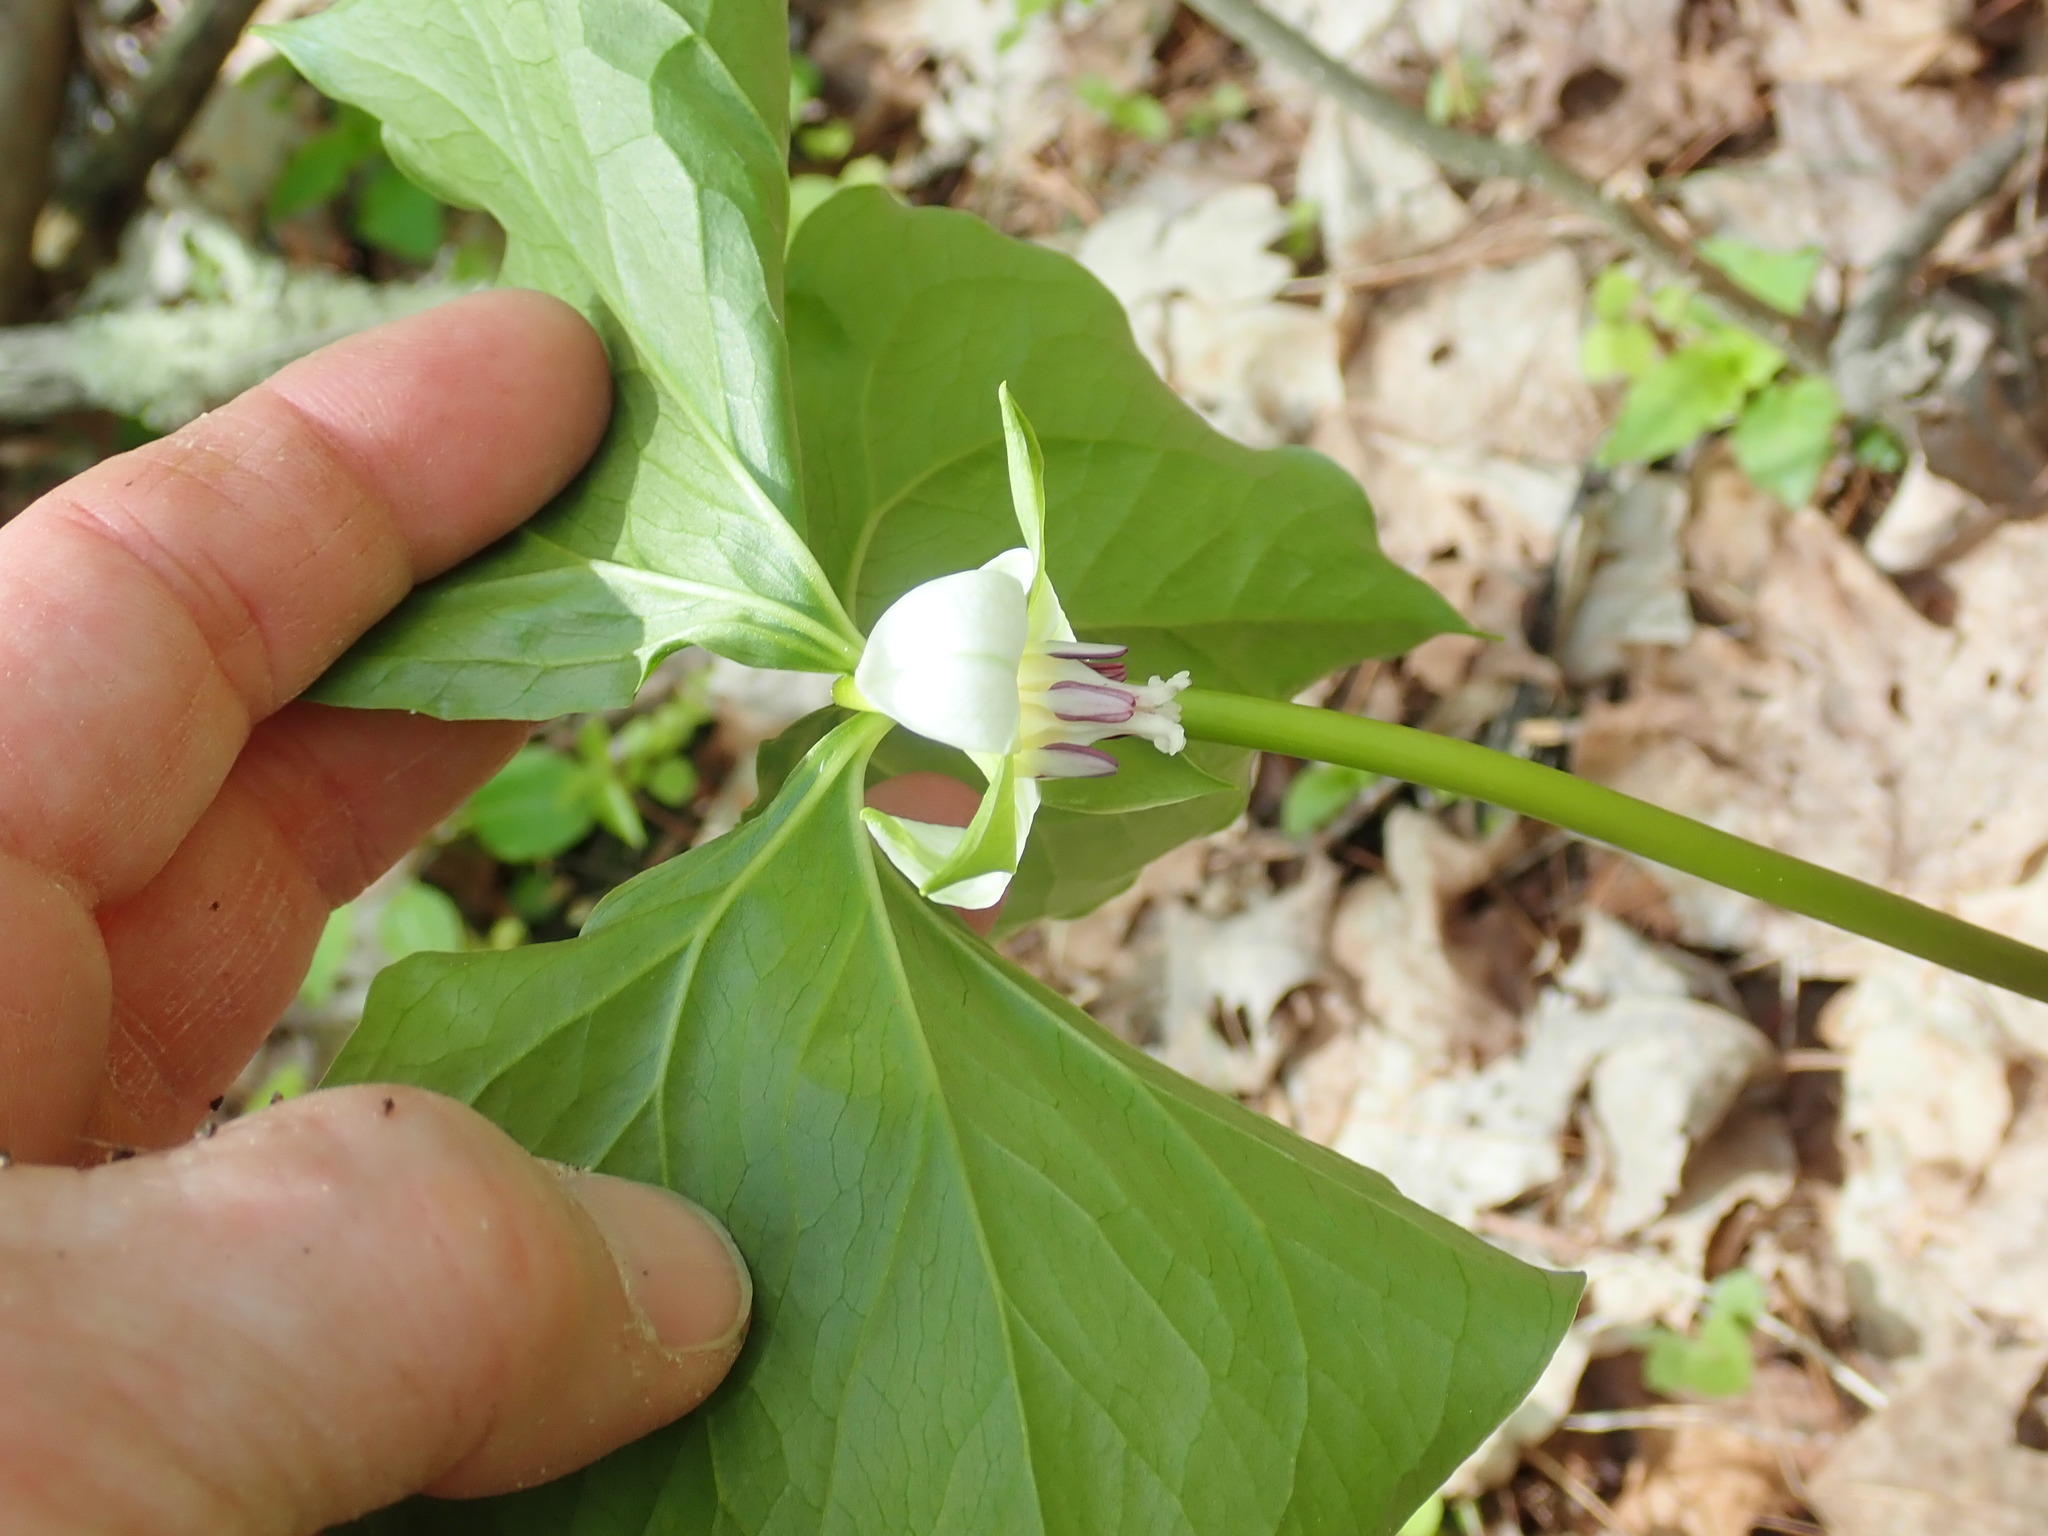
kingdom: Plantae
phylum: Tracheophyta
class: Liliopsida
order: Liliales
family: Melanthiaceae
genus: Trillium
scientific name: Trillium cernuum
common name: Nodding trillium
